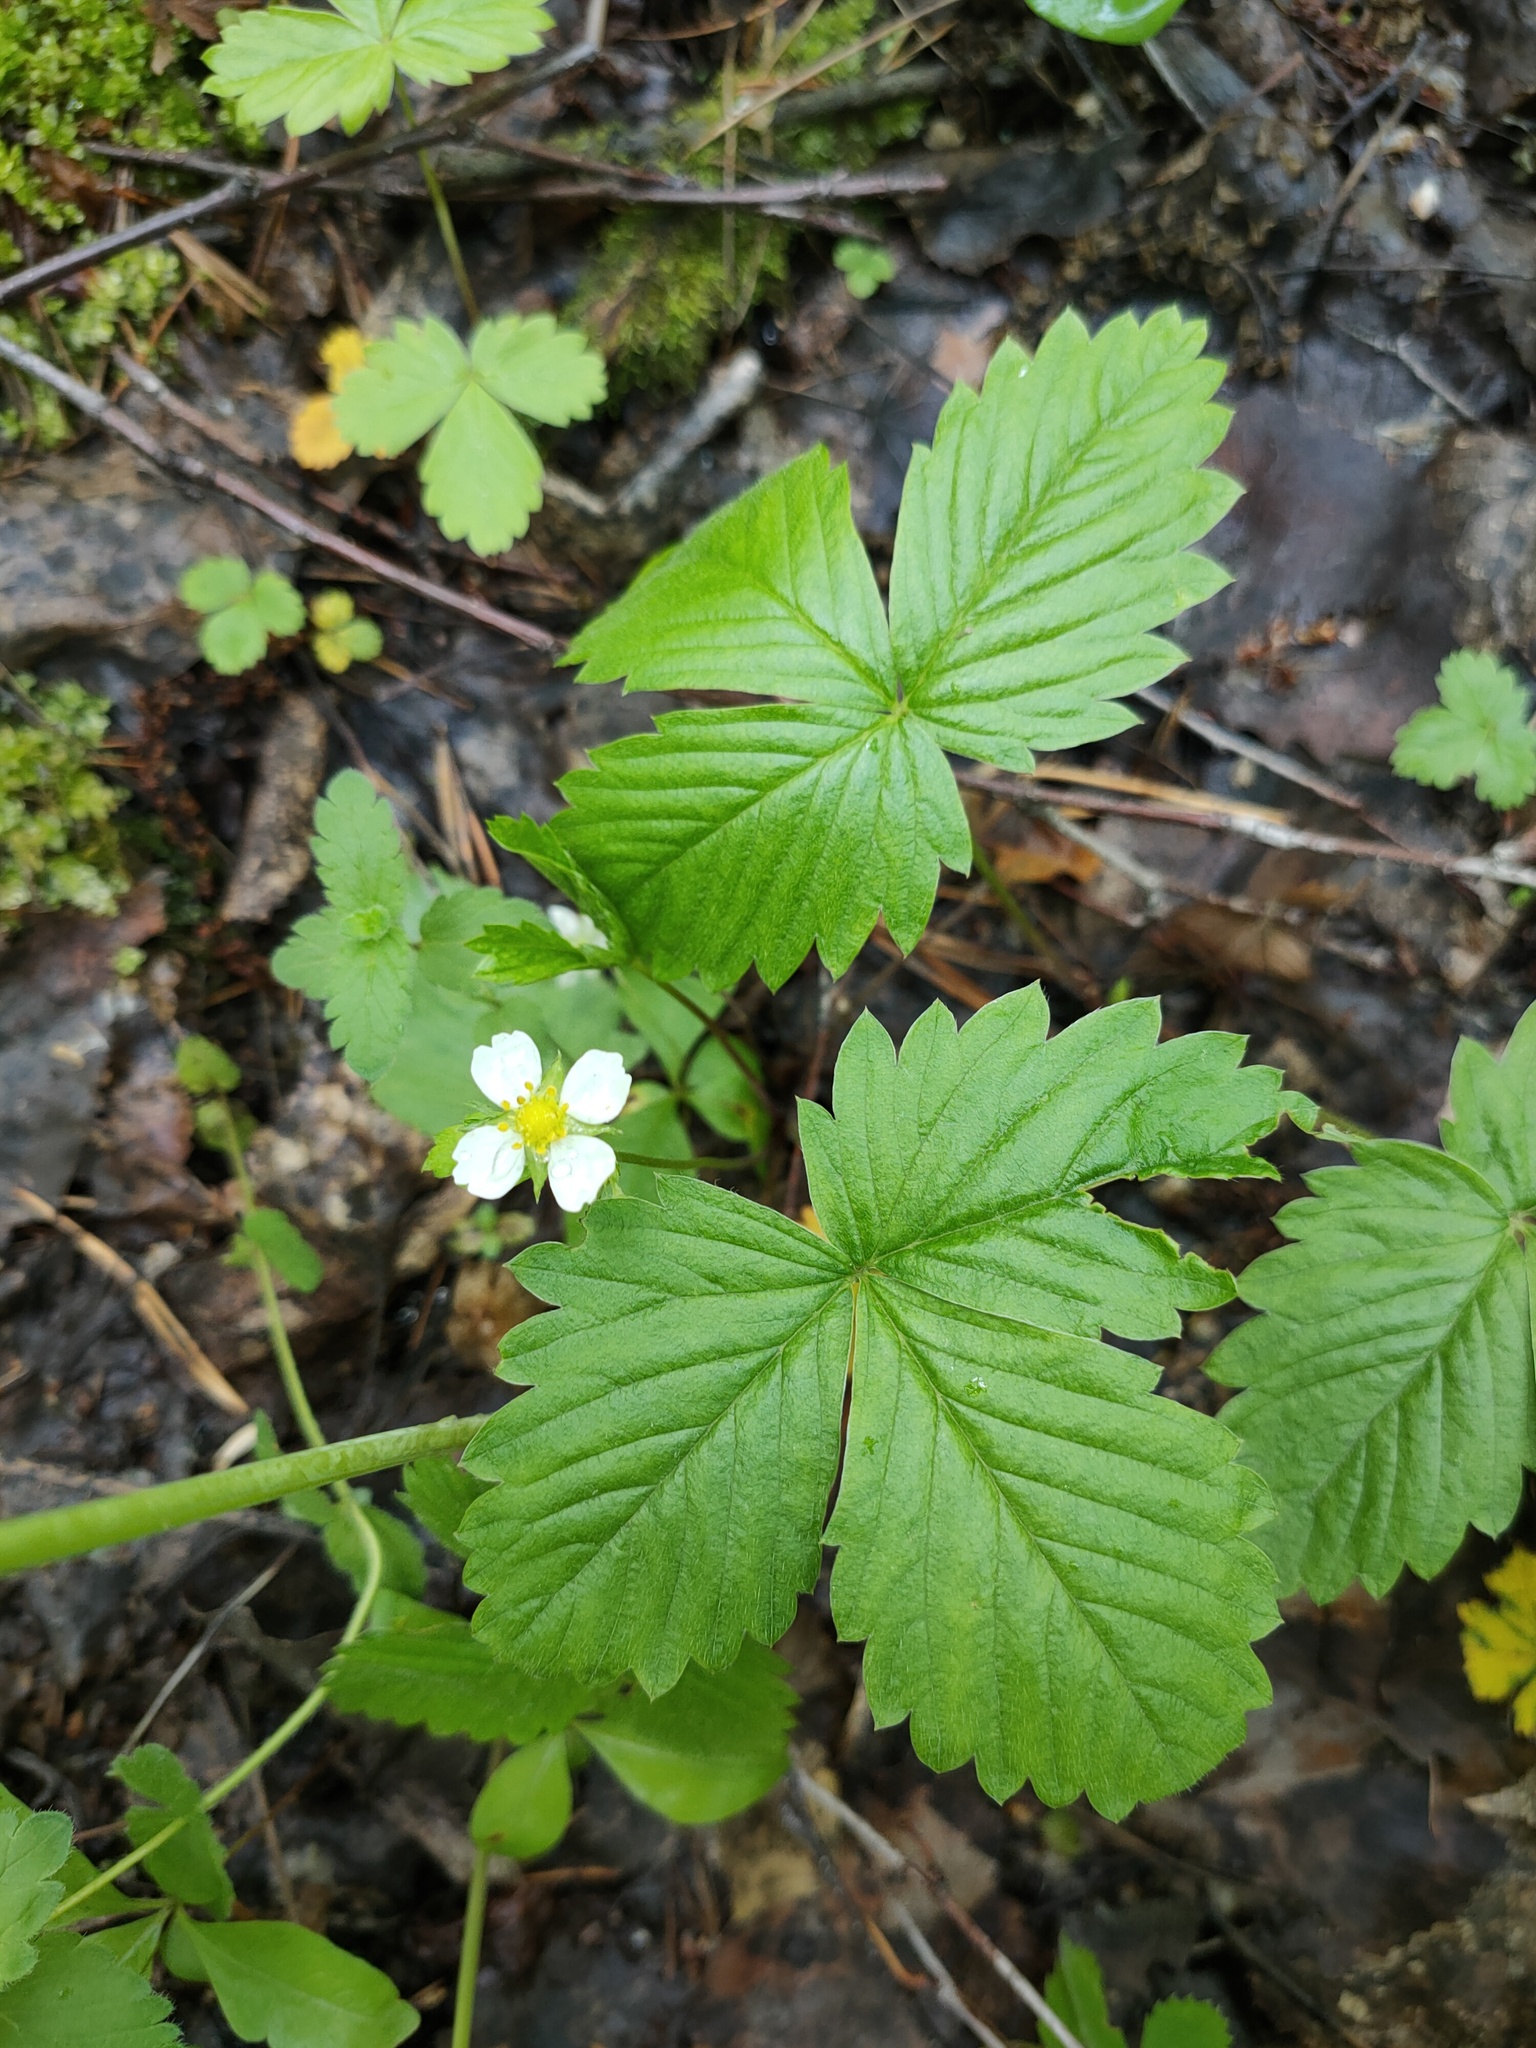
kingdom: Plantae
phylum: Tracheophyta
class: Magnoliopsida
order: Rosales
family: Rosaceae
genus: Fragaria
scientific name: Fragaria vesca
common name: Wild strawberry
